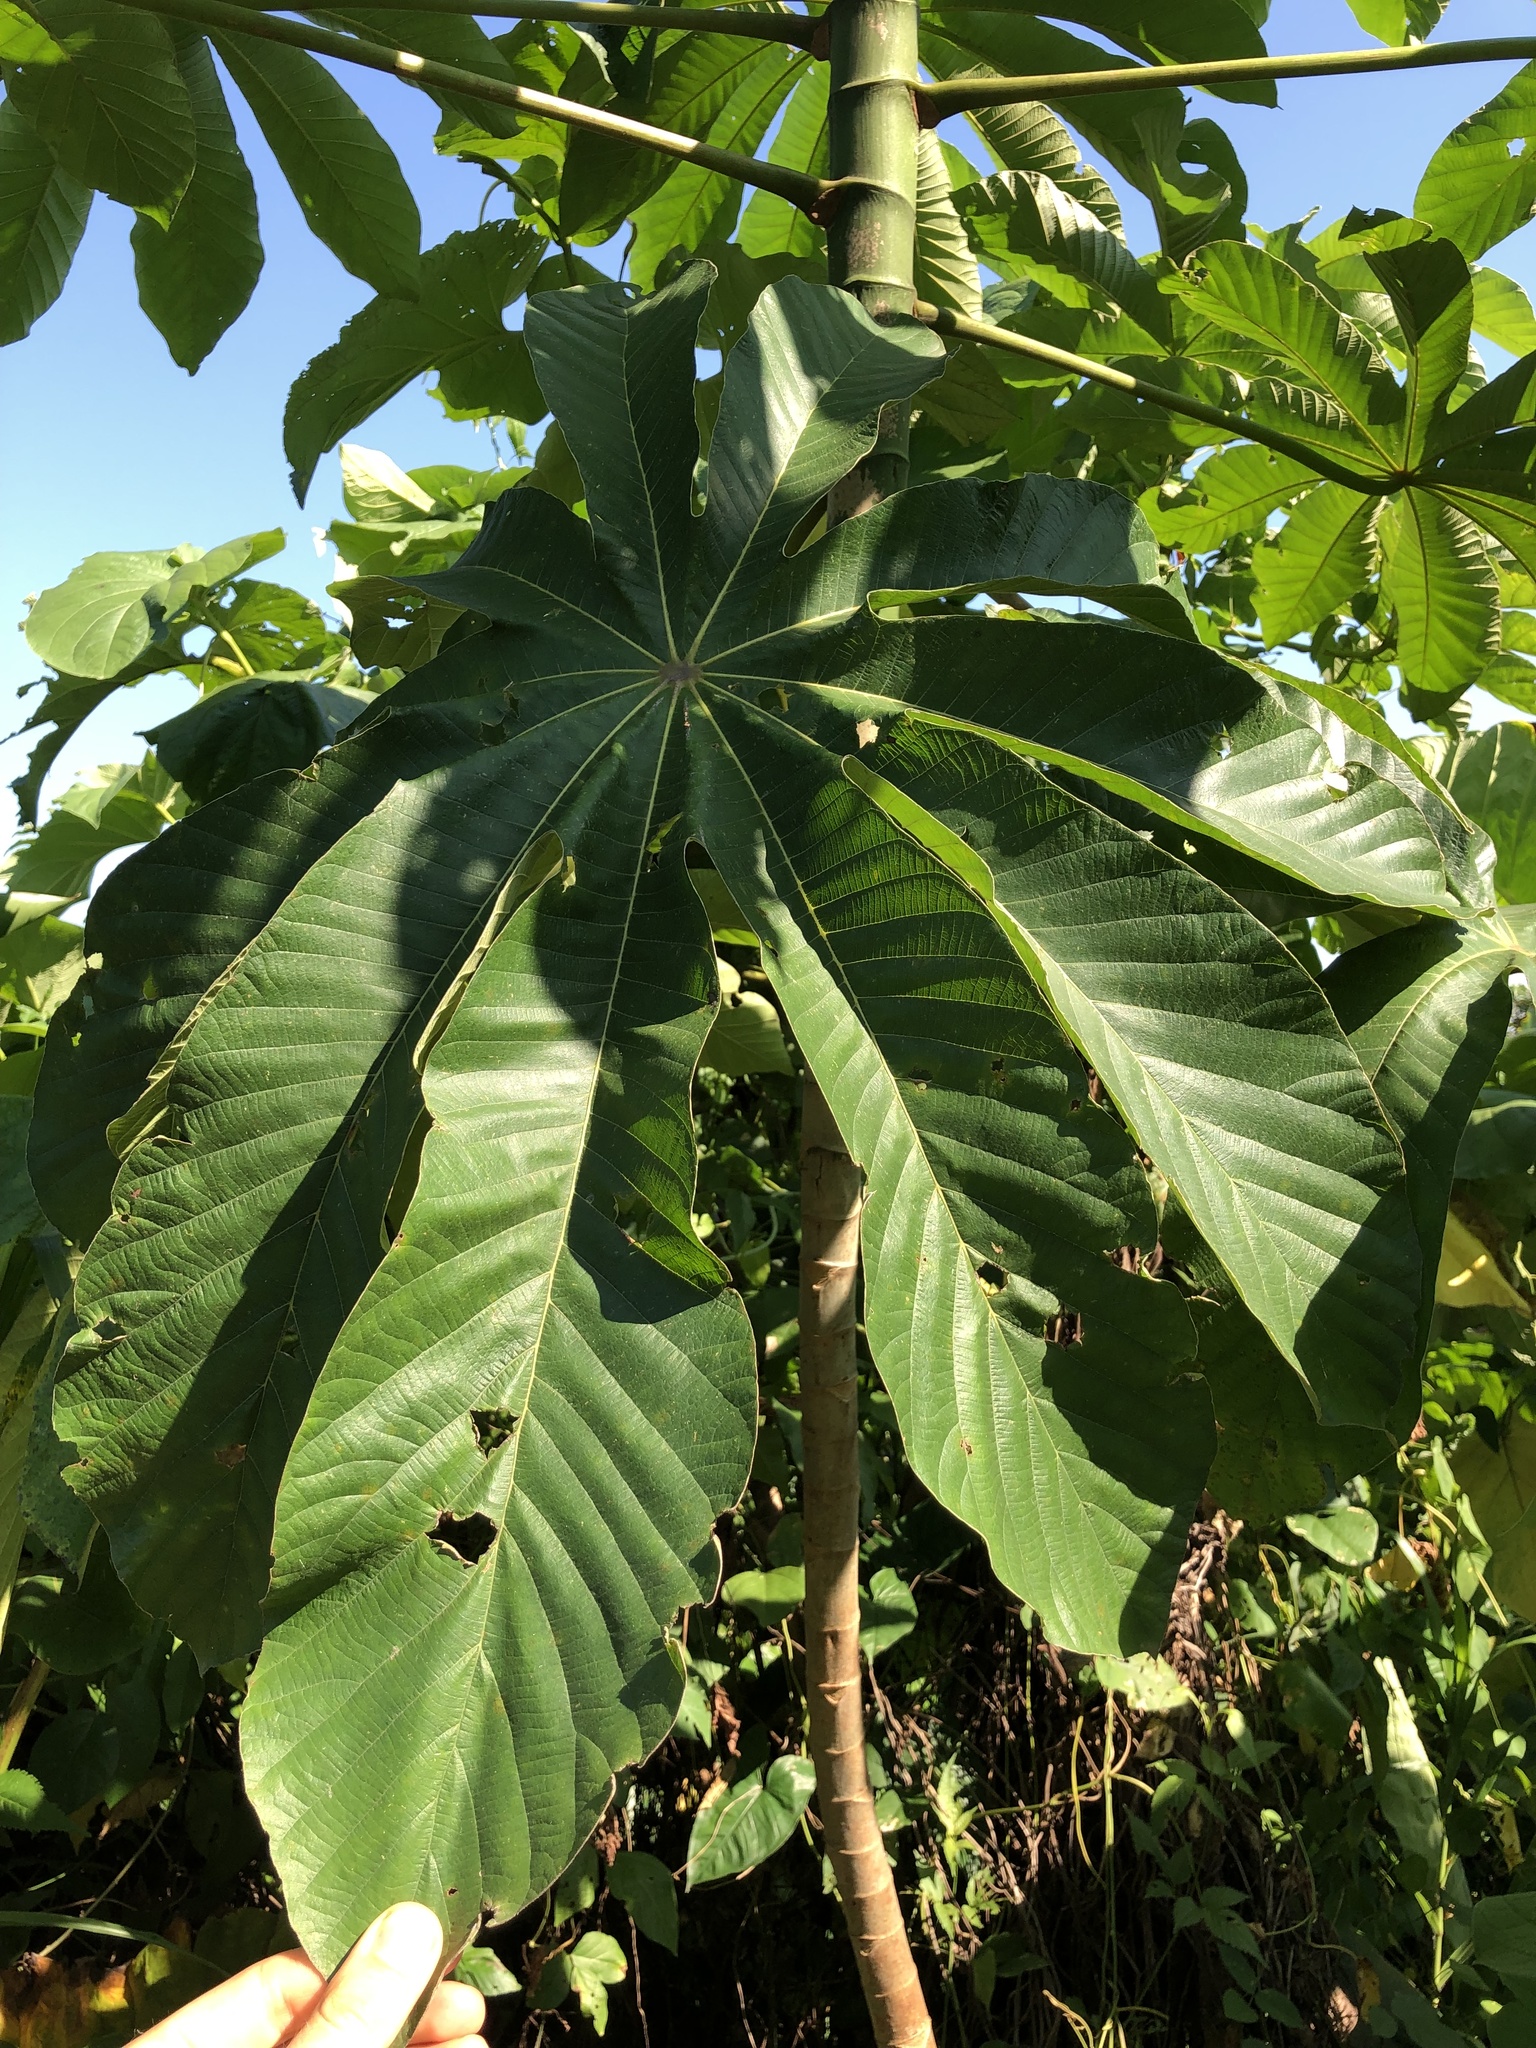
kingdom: Plantae
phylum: Tracheophyta
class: Magnoliopsida
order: Rosales
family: Urticaceae
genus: Cecropia
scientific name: Cecropia obtusifolia
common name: Trumpet tree
